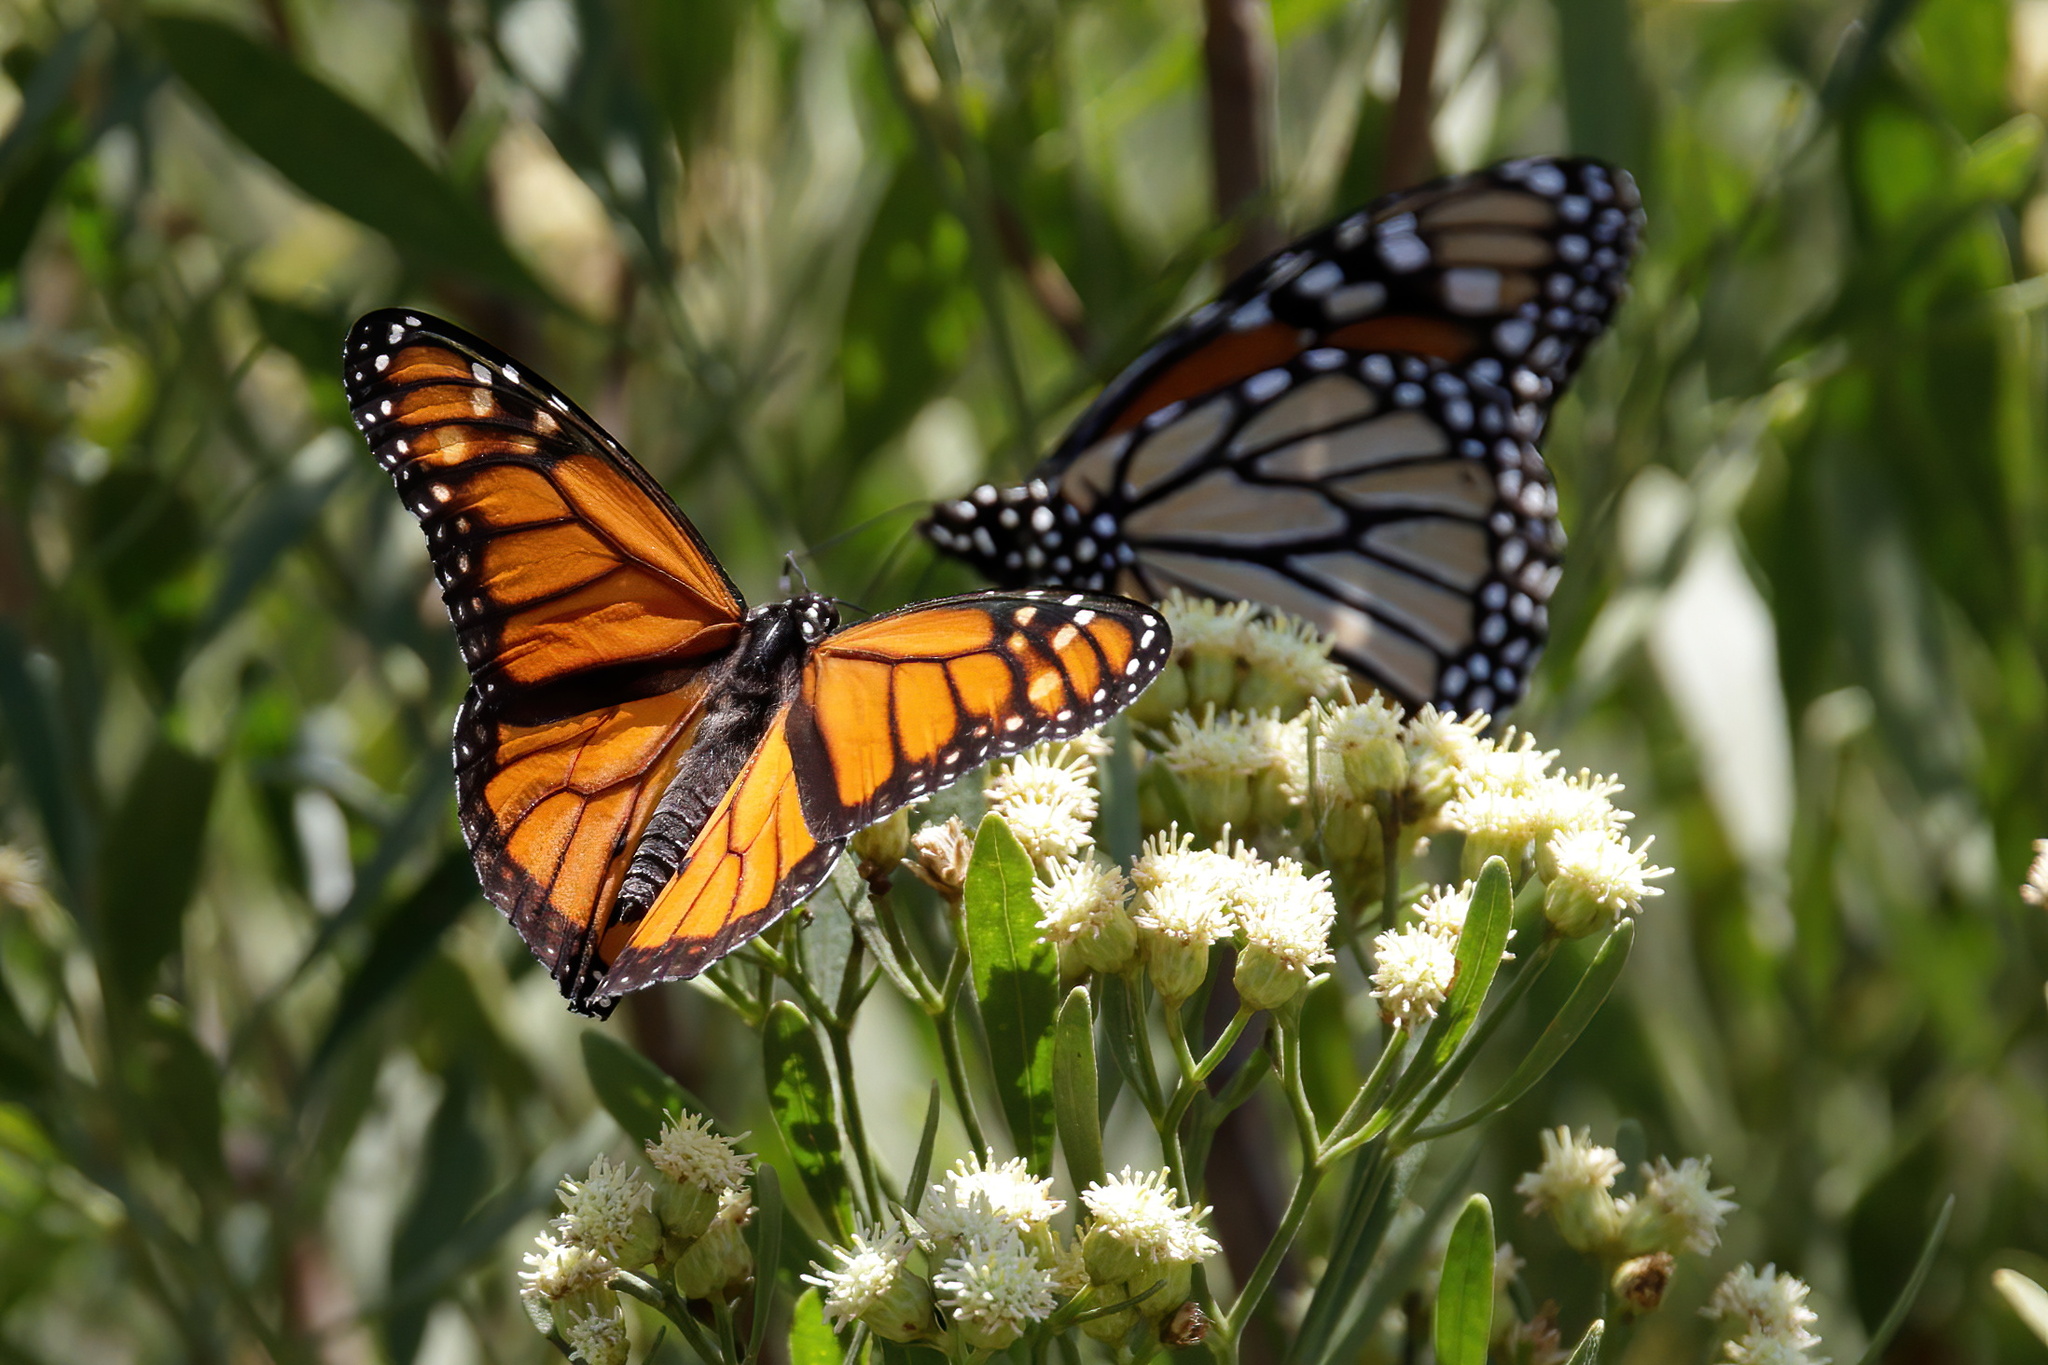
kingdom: Animalia
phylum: Arthropoda
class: Insecta
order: Lepidoptera
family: Nymphalidae
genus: Danaus
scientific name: Danaus plexippus
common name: Monarch
